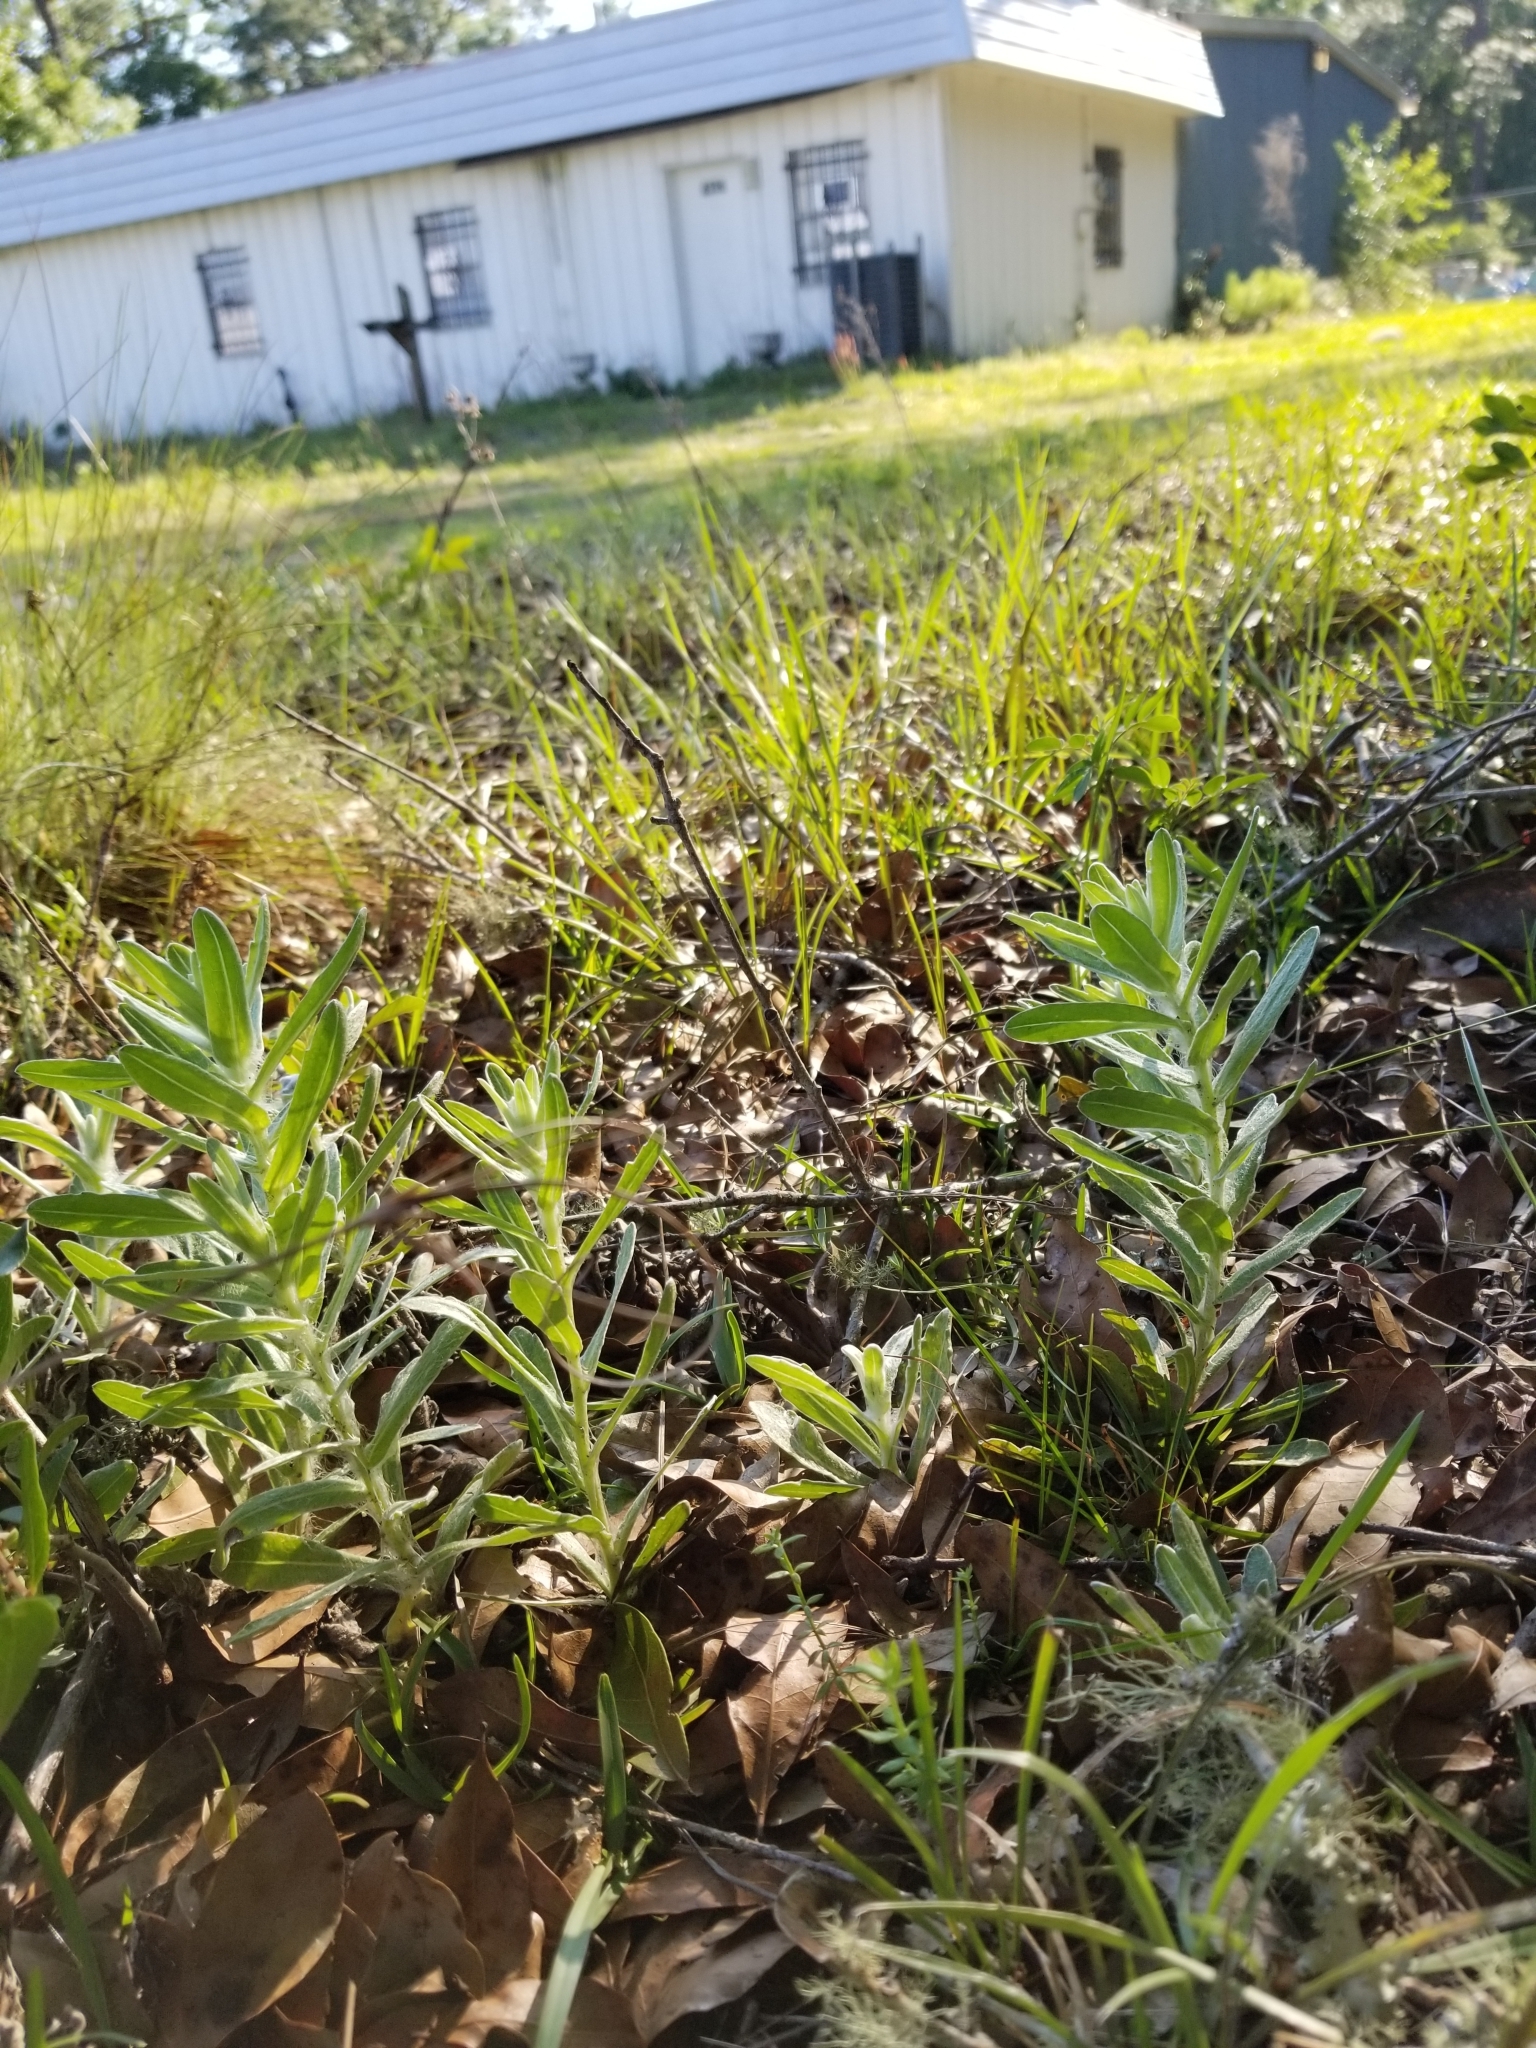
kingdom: Plantae
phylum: Tracheophyta
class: Magnoliopsida
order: Asterales
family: Asteraceae
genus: Chrysopsis
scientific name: Chrysopsis gossypina
